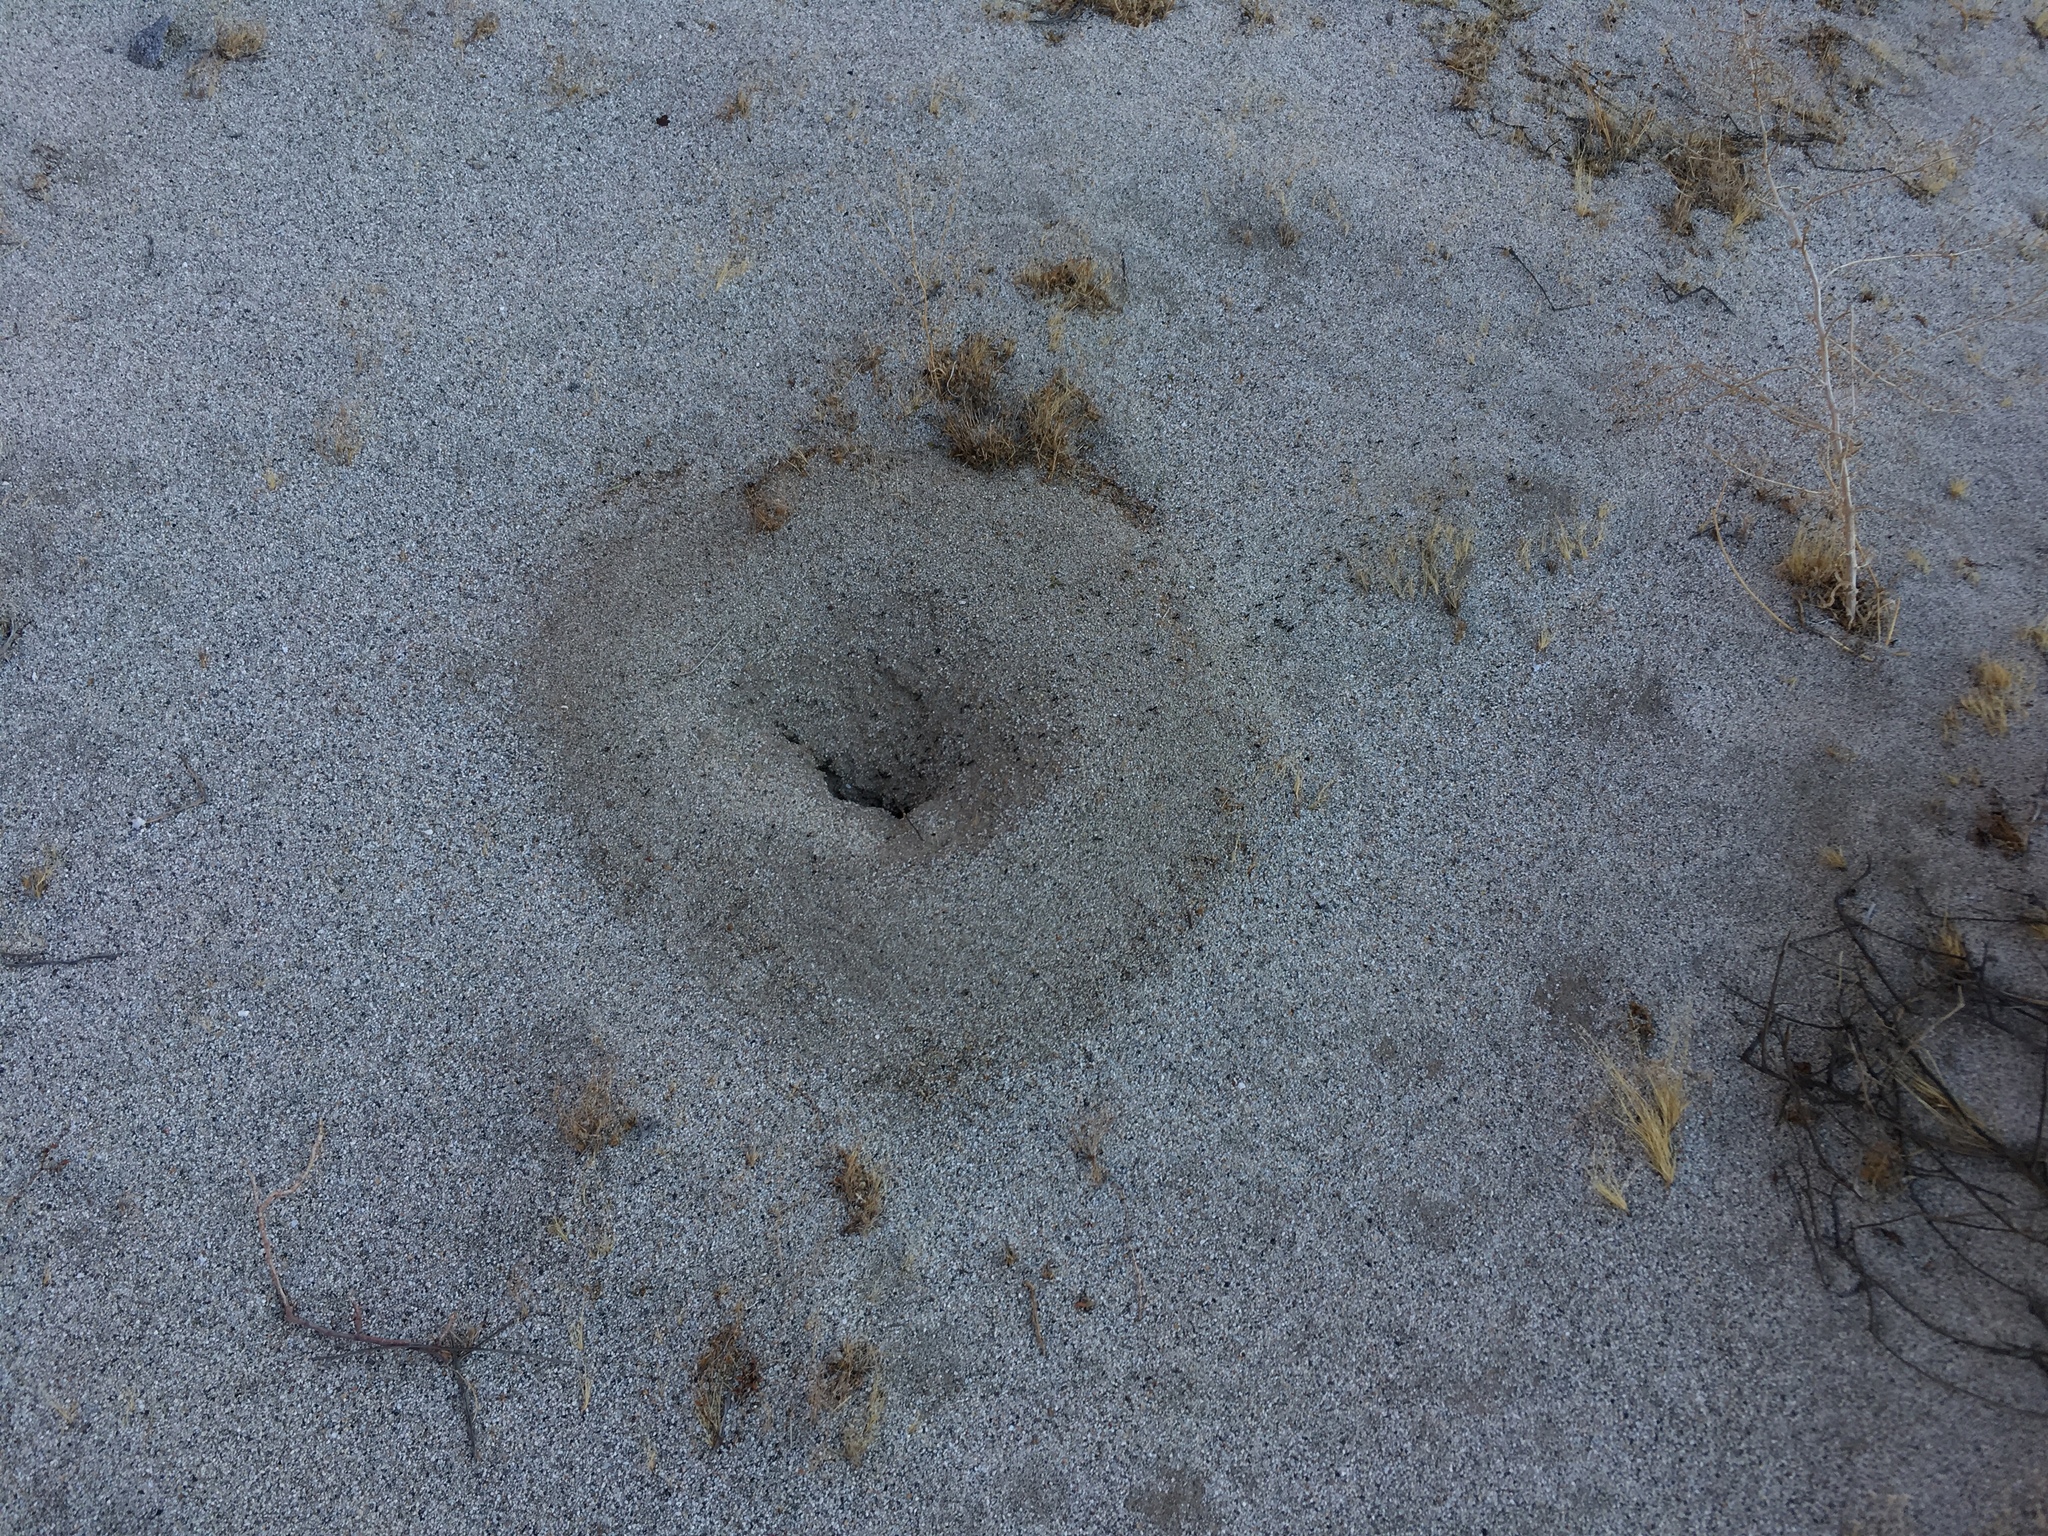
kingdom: Animalia
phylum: Arthropoda
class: Insecta
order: Hymenoptera
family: Formicidae
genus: Messor
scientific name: Messor pergandei
